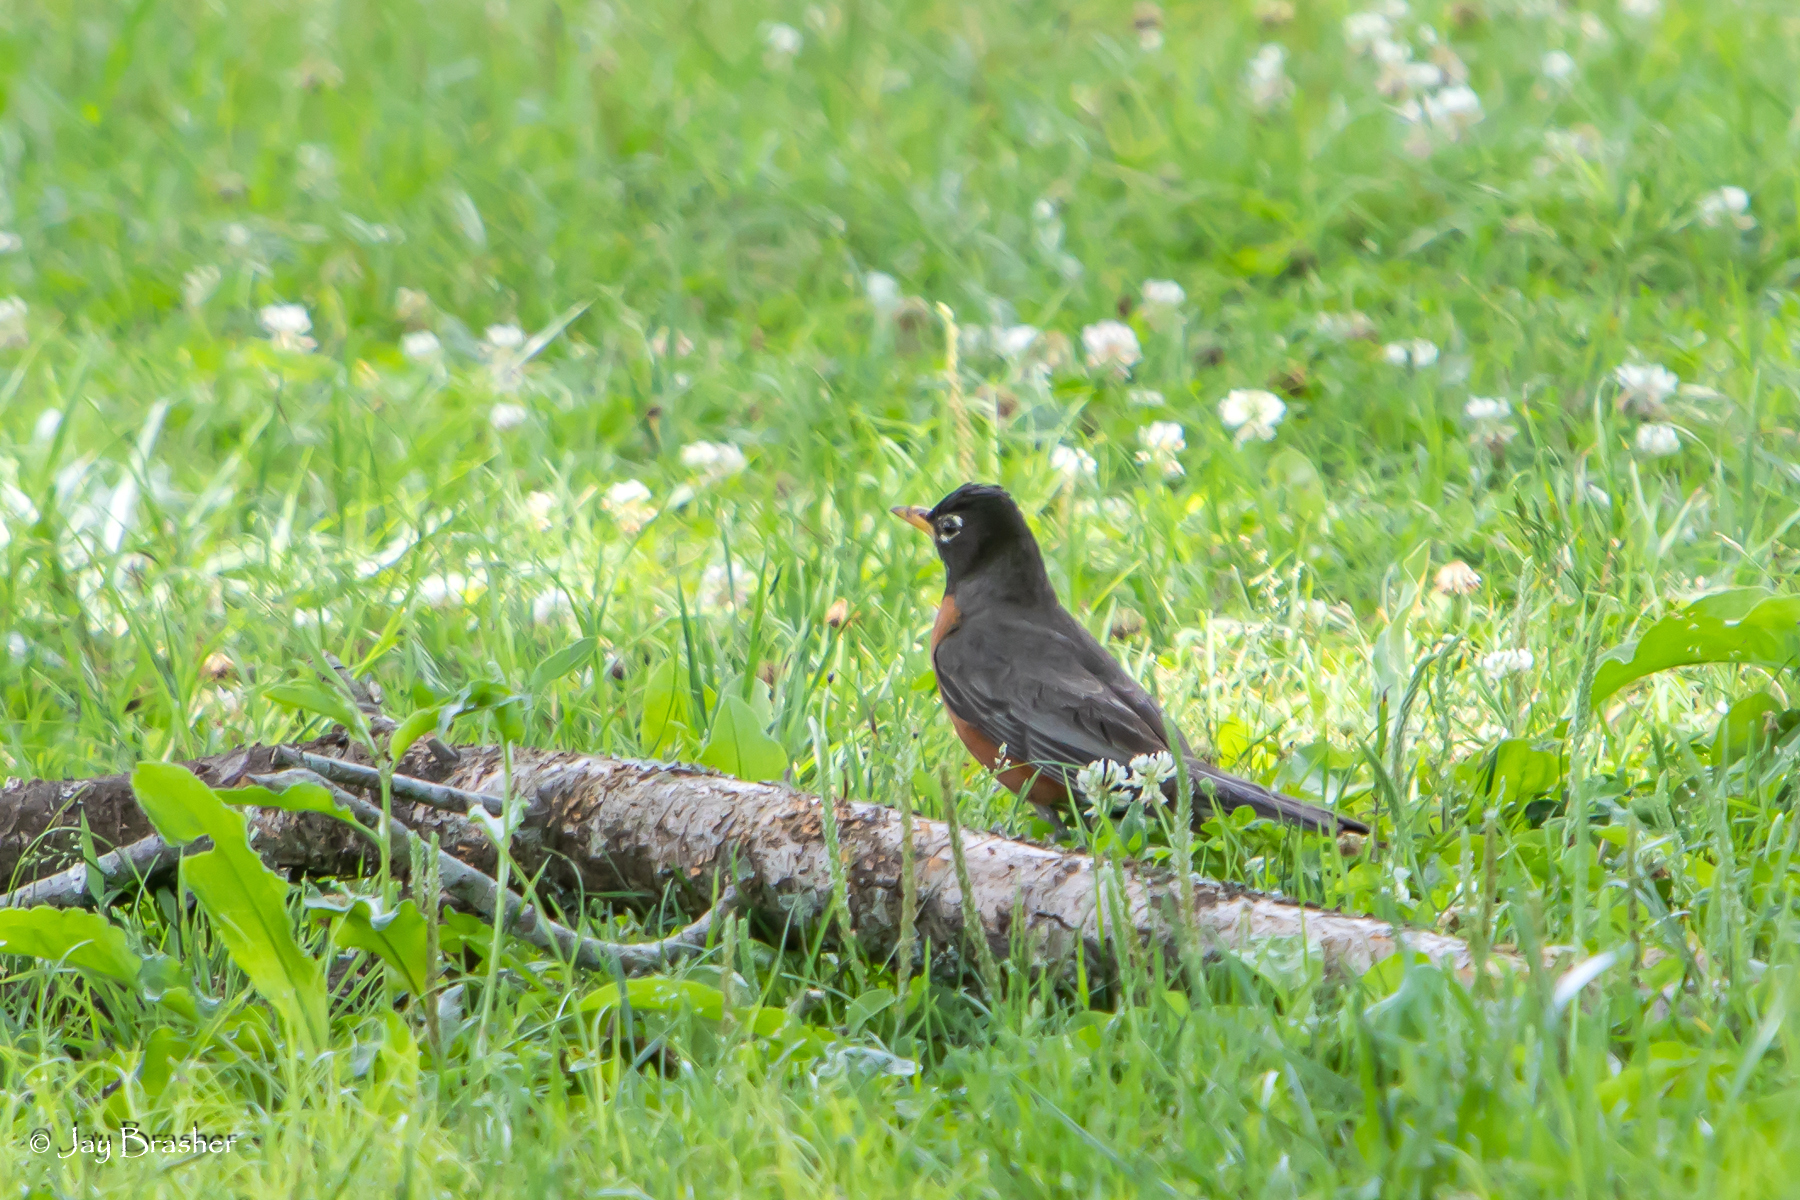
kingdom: Animalia
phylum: Chordata
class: Aves
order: Passeriformes
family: Turdidae
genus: Turdus
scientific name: Turdus migratorius
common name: American robin
